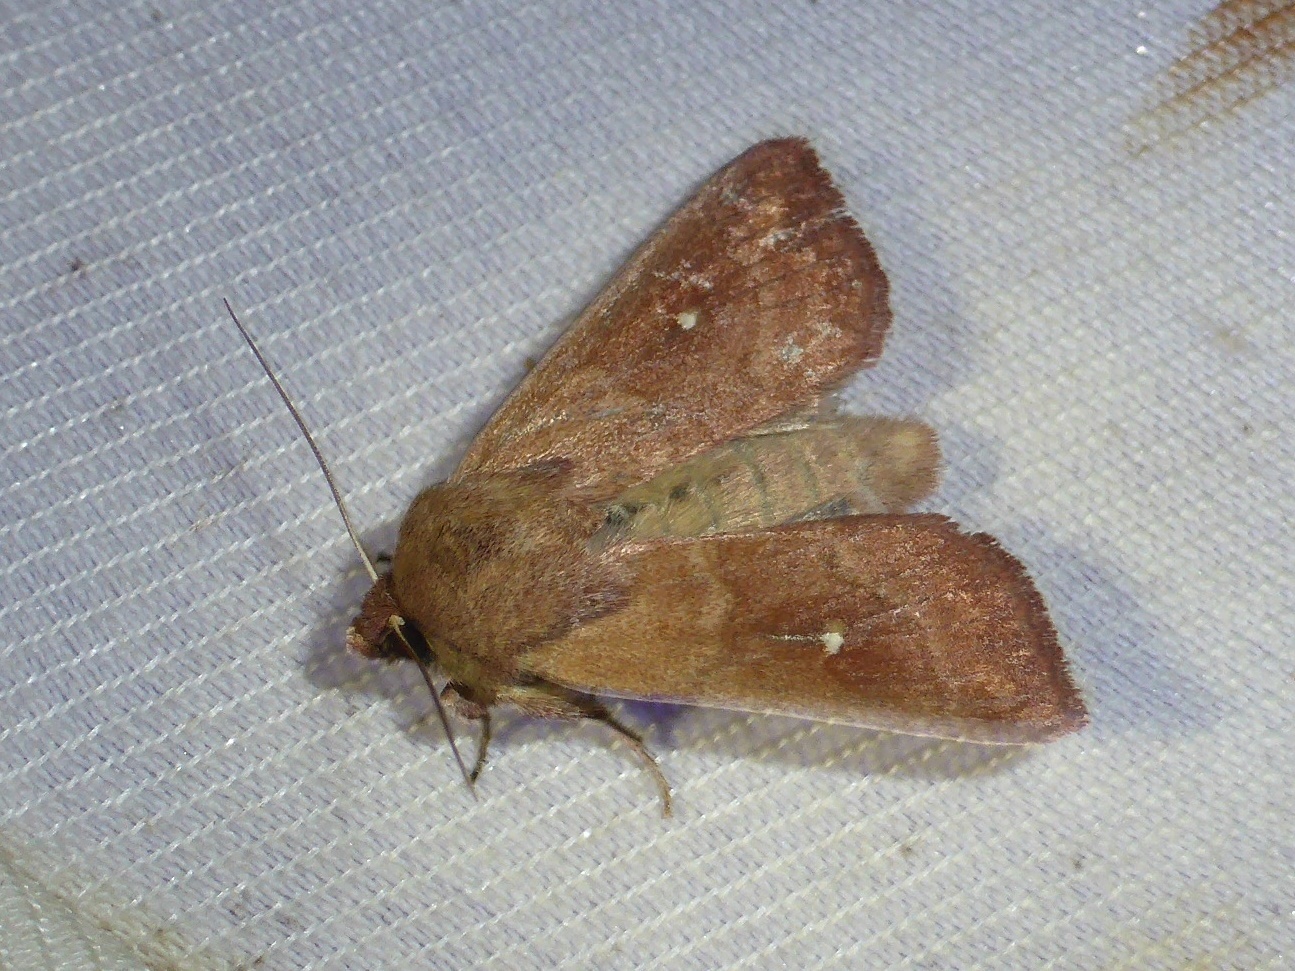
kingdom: Animalia
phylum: Arthropoda
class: Insecta
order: Lepidoptera
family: Noctuidae
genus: Mythimna
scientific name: Mythimna albipuncta
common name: White-point
